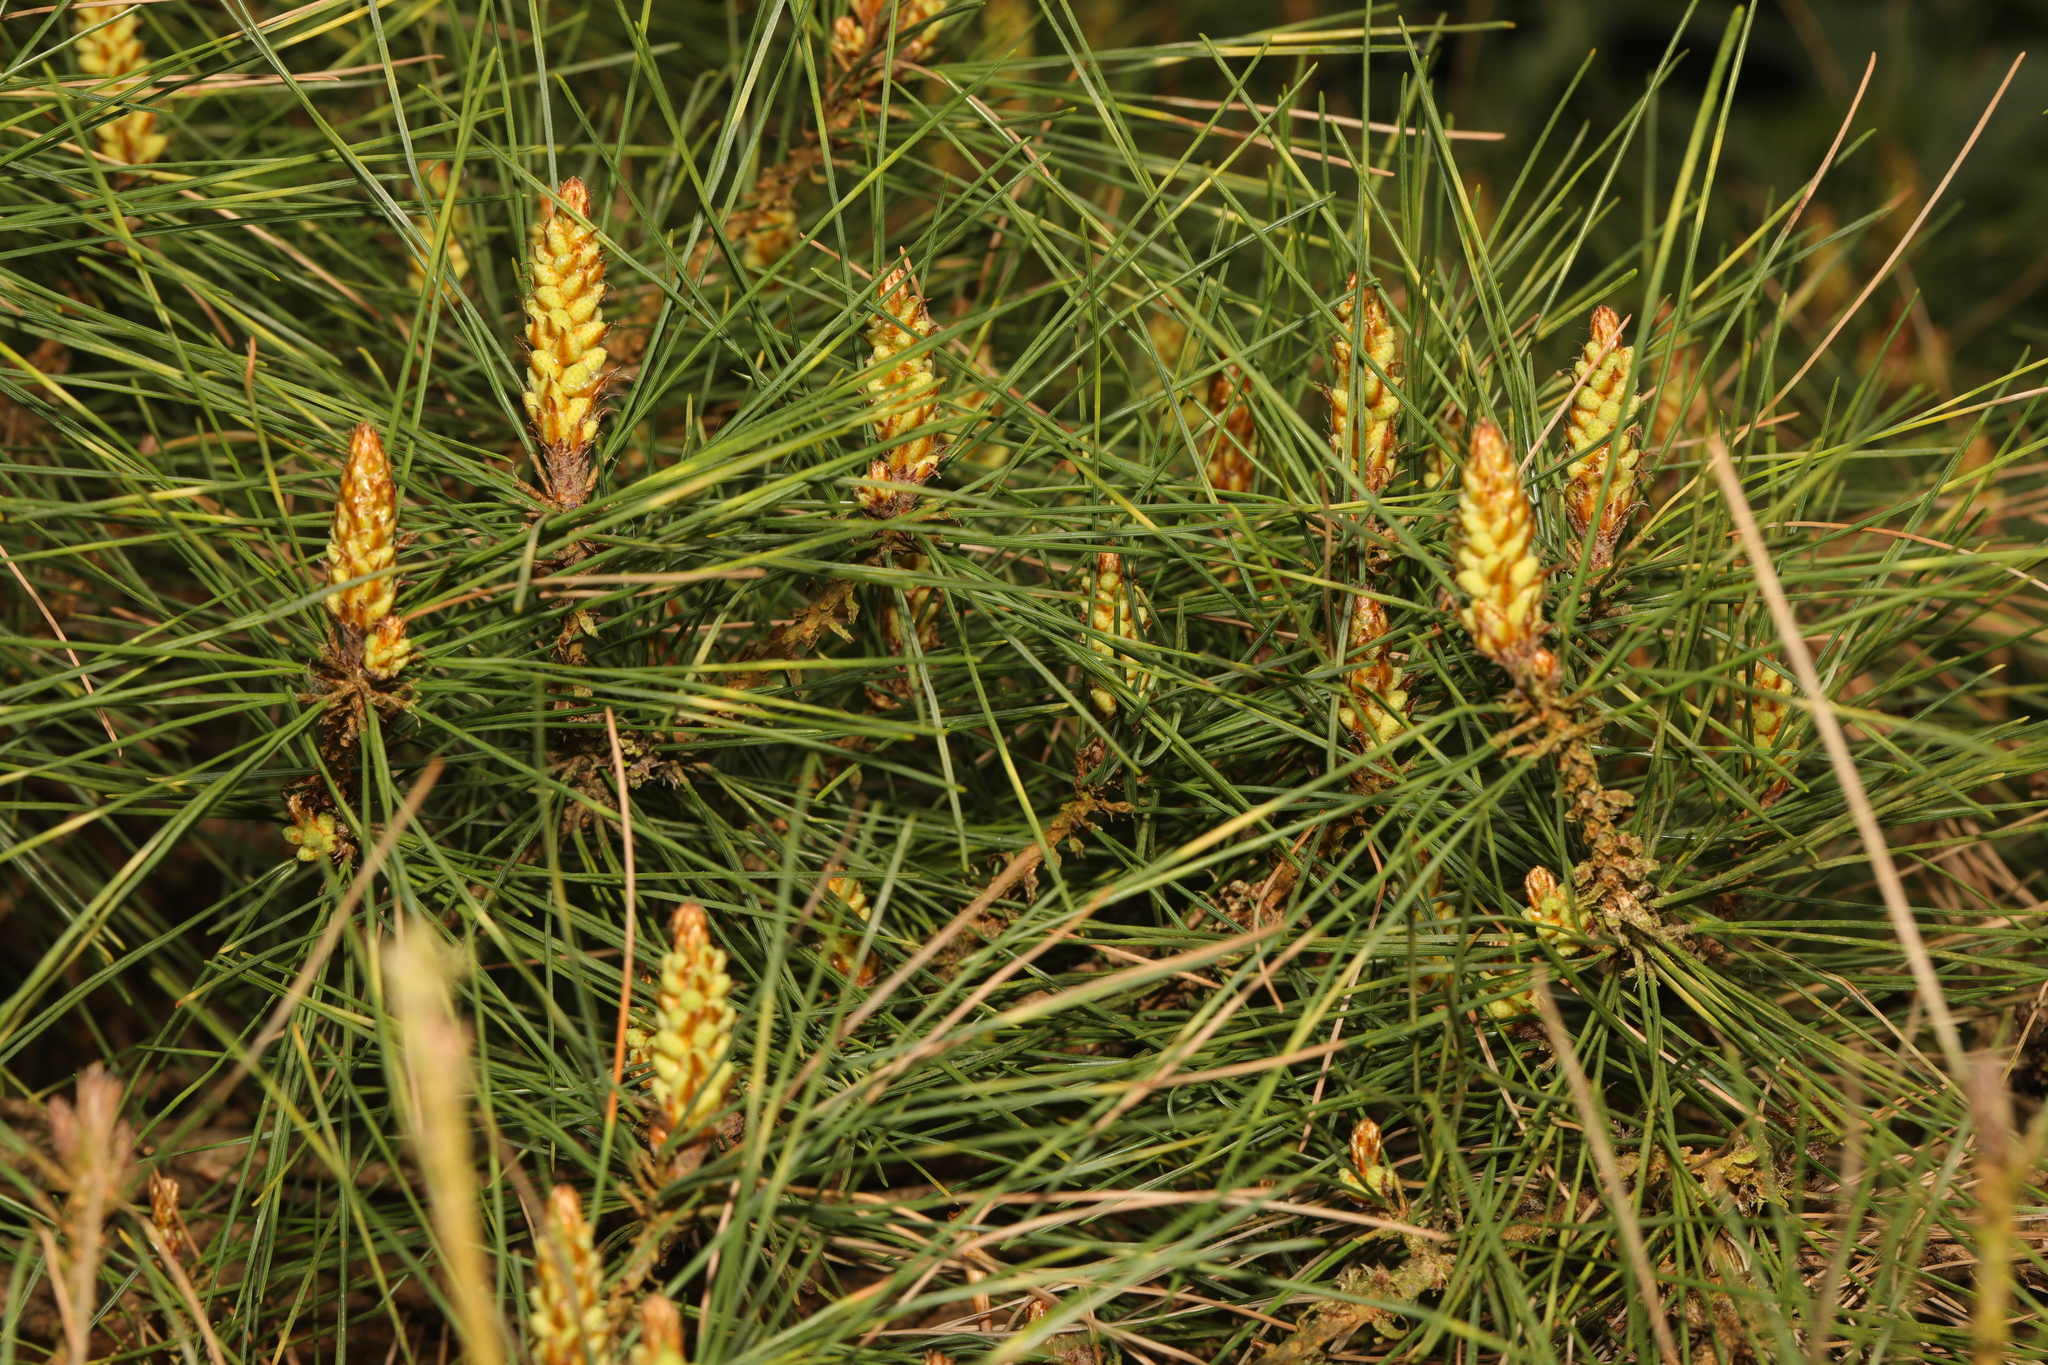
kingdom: Plantae
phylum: Tracheophyta
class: Pinopsida
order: Pinales
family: Pinaceae
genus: Pinus
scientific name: Pinus sylvestris
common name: Scots pine
